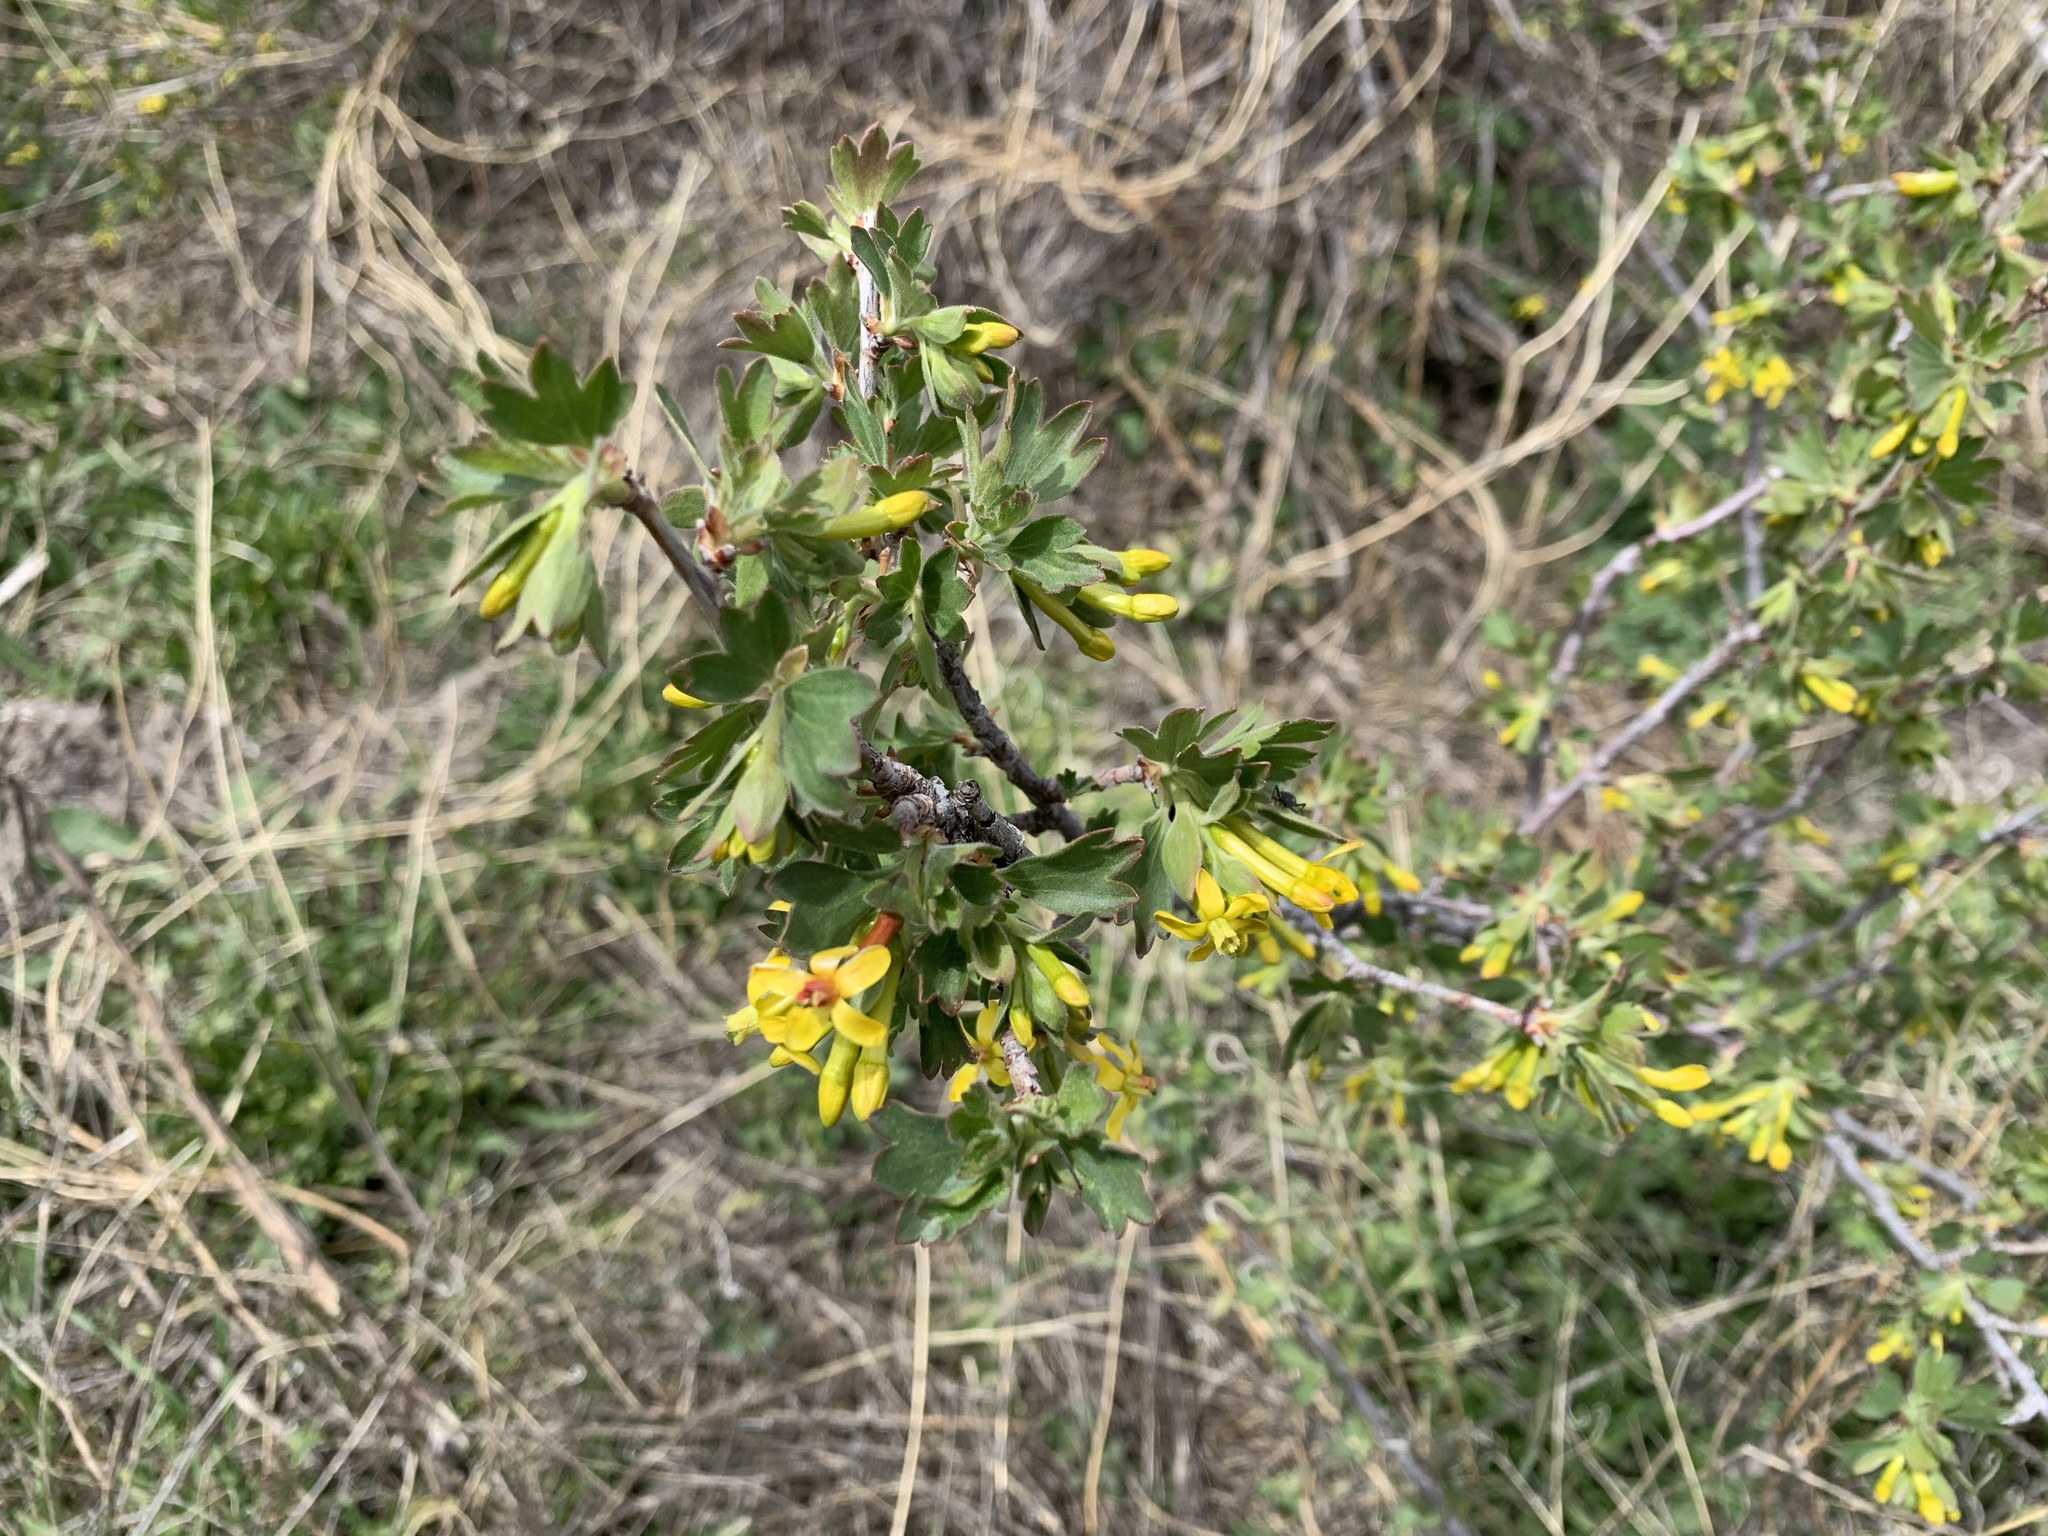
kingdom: Plantae
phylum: Tracheophyta
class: Magnoliopsida
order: Saxifragales
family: Grossulariaceae
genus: Ribes
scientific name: Ribes aureum
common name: Golden currant
